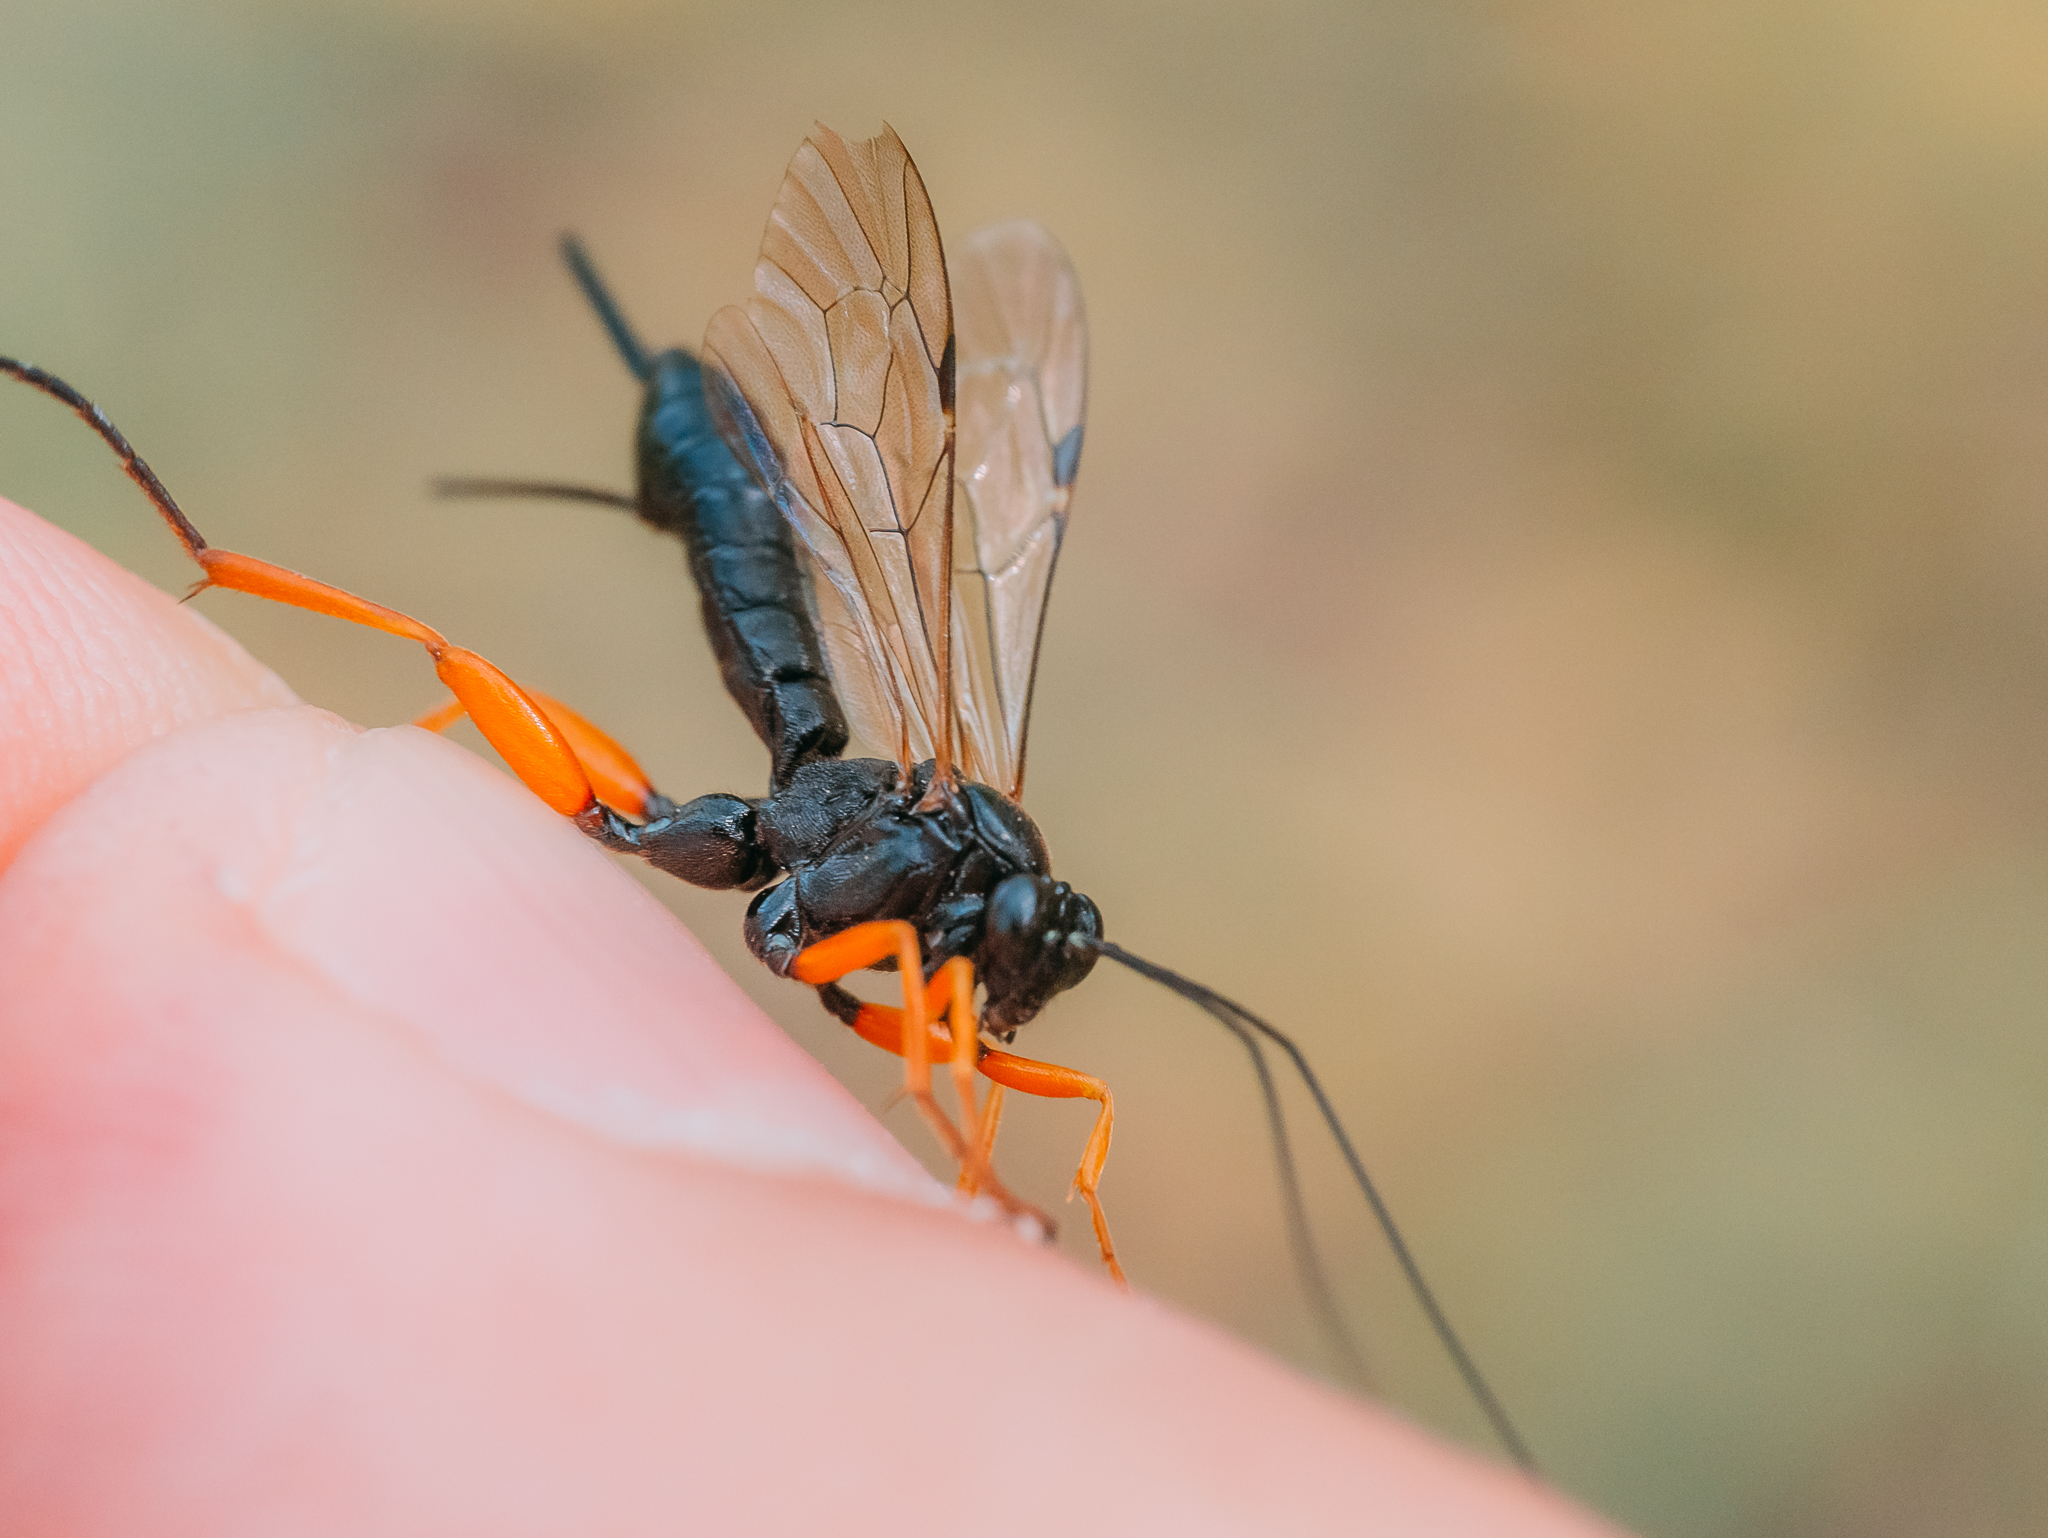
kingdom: Animalia
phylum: Arthropoda
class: Insecta
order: Hymenoptera
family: Ichneumonidae
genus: Pimpla
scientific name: Pimpla rufipes
